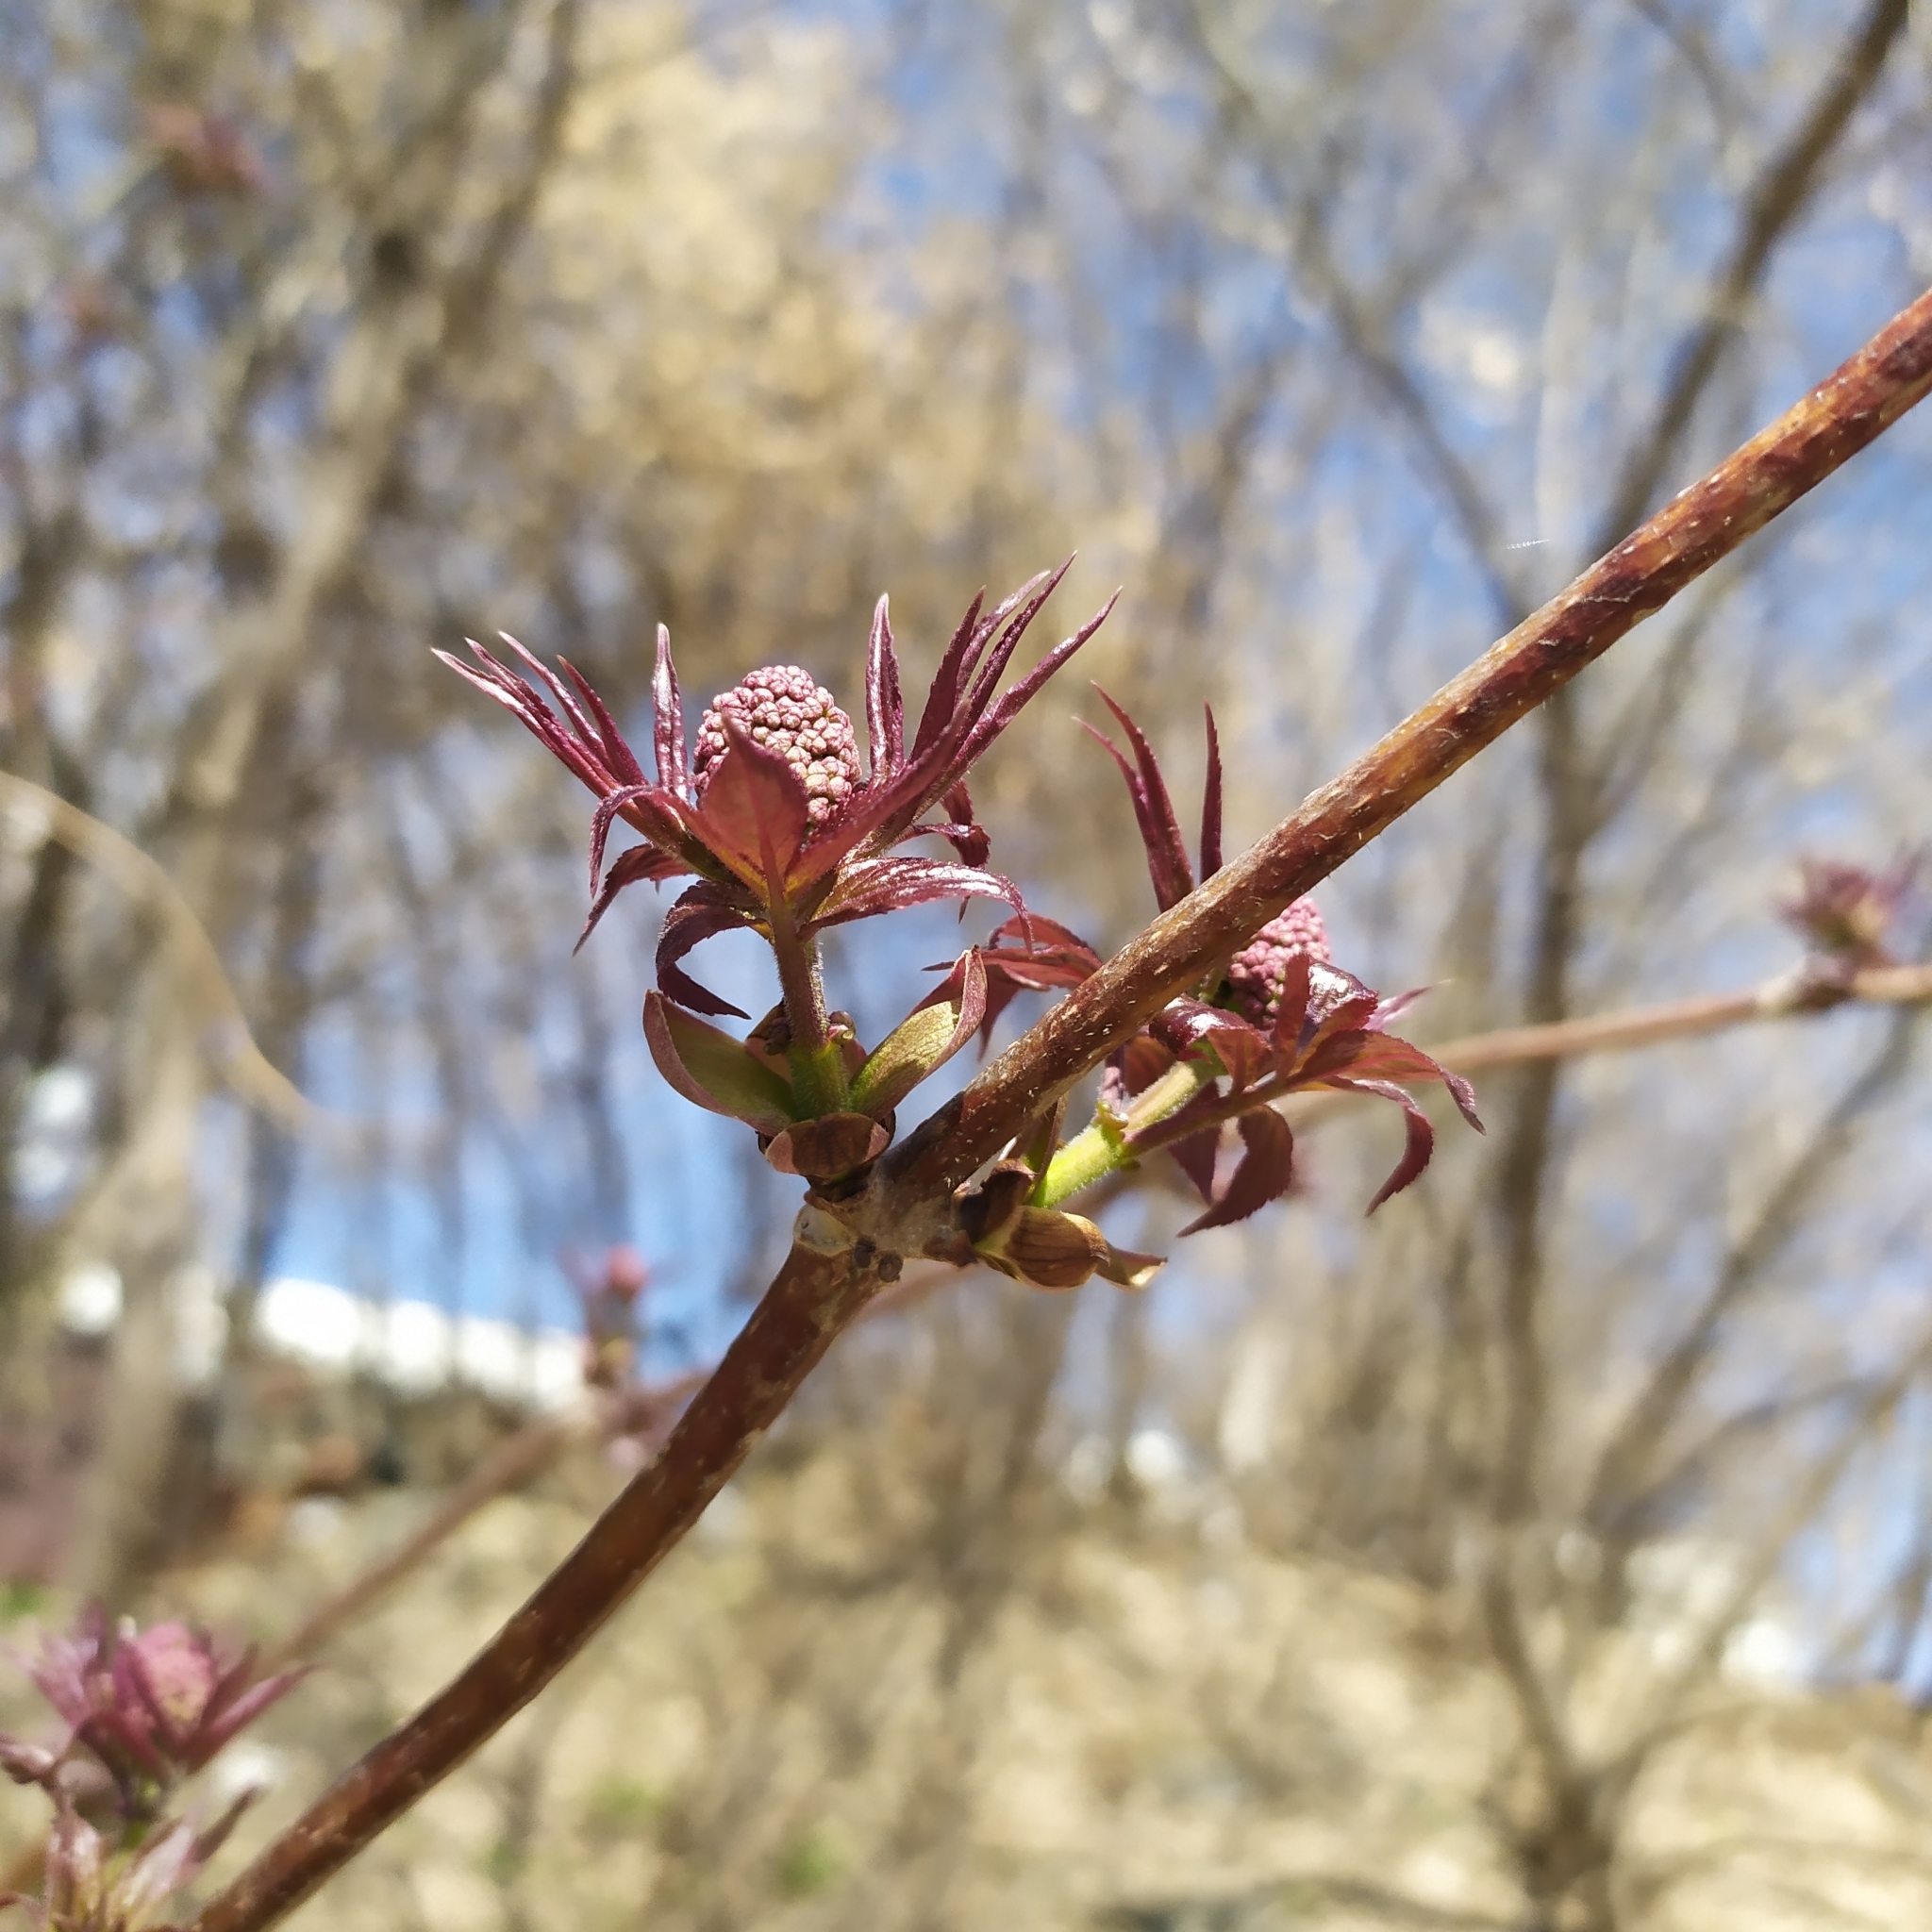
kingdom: Plantae
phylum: Tracheophyta
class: Magnoliopsida
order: Dipsacales
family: Viburnaceae
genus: Sambucus
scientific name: Sambucus racemosa
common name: Red-berried elder
